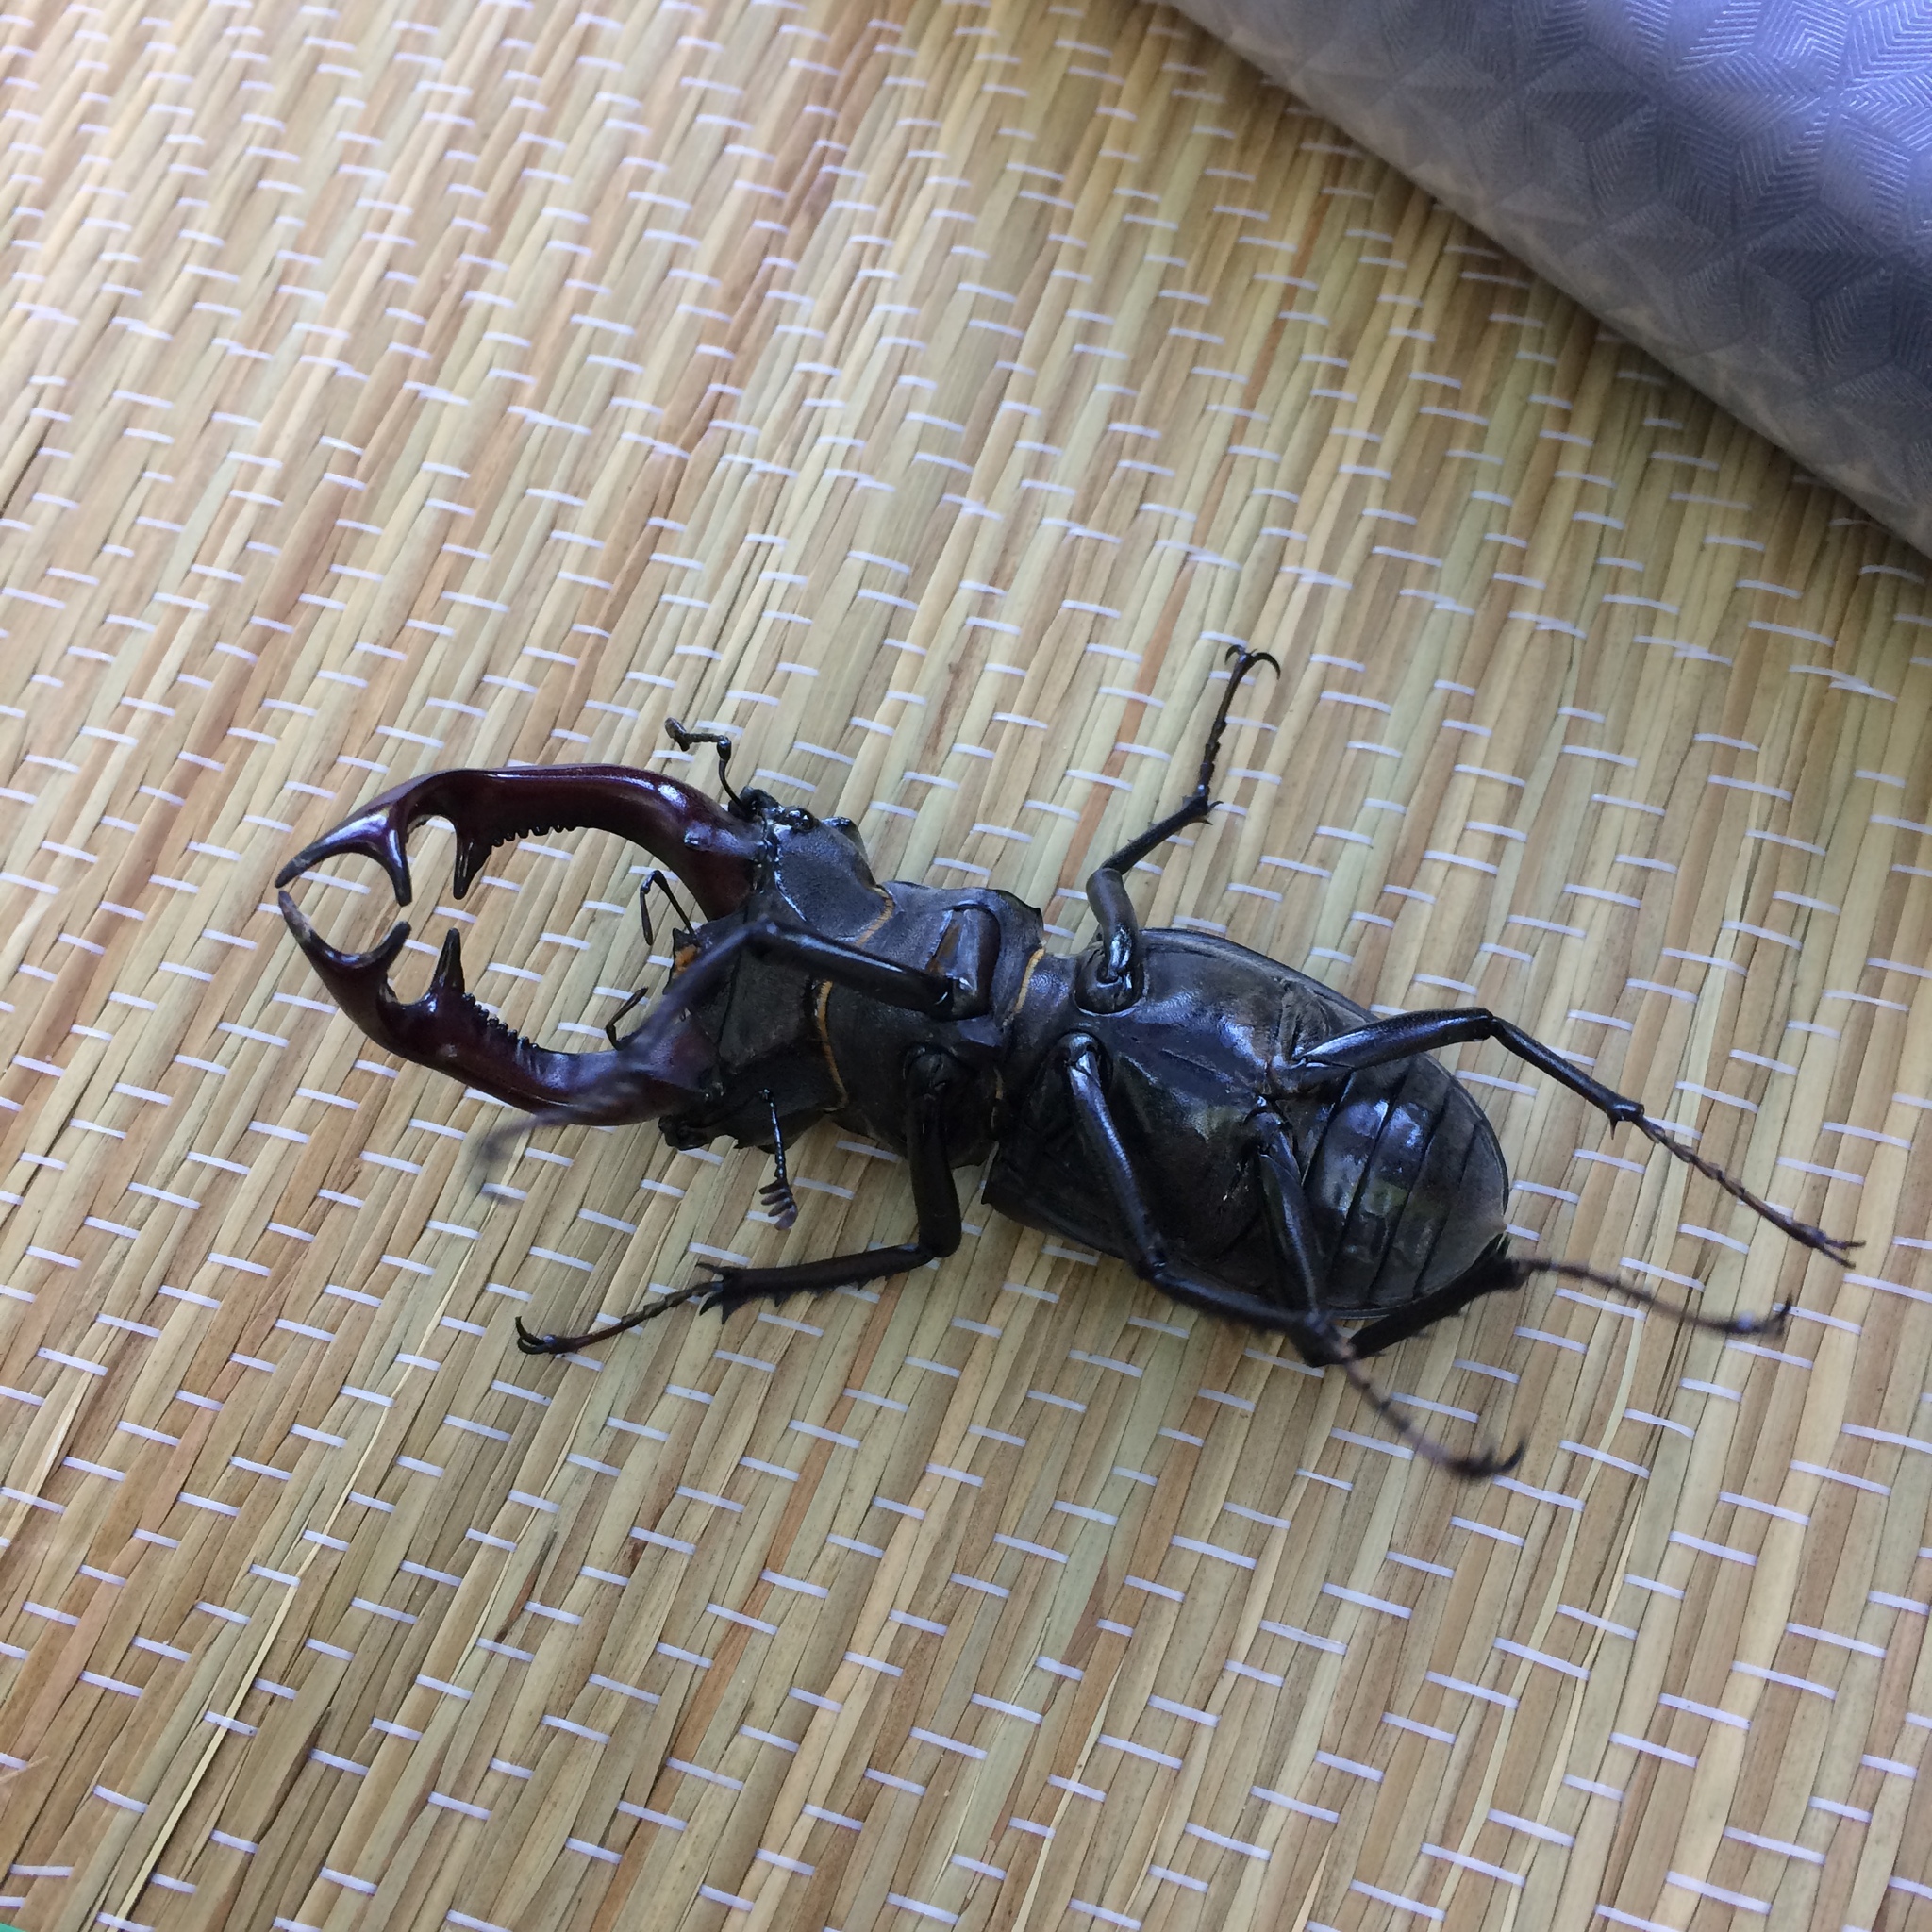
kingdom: Animalia
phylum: Arthropoda
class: Insecta
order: Coleoptera
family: Lucanidae
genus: Lucanus
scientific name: Lucanus cervus
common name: Stag beetle
